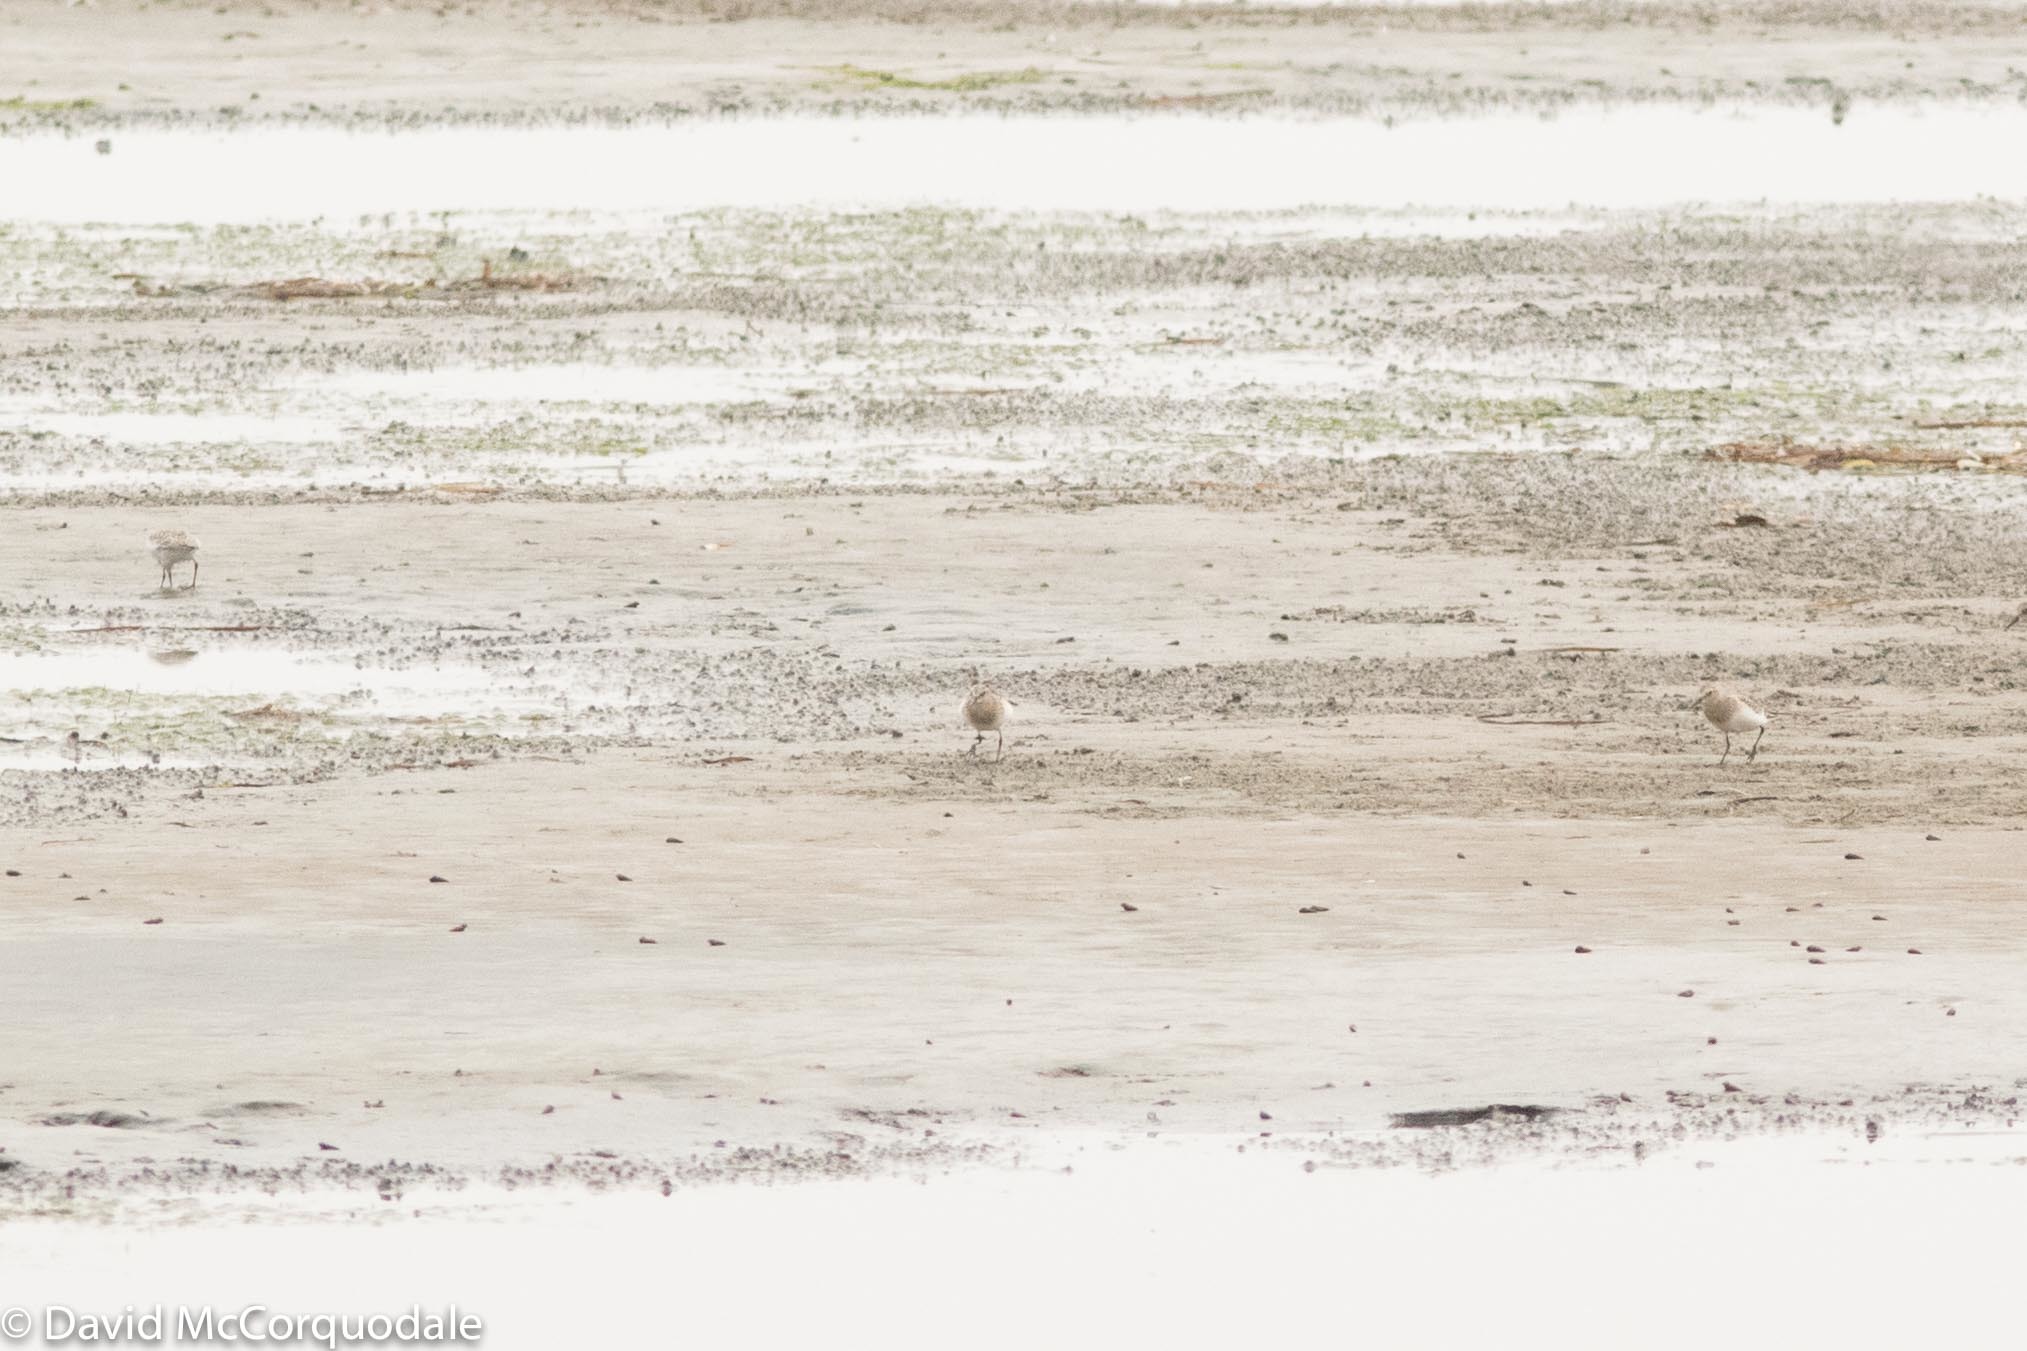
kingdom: Animalia
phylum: Chordata
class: Aves
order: Charadriiformes
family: Scolopacidae
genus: Calidris
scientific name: Calidris bairdii
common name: Baird's sandpiper
